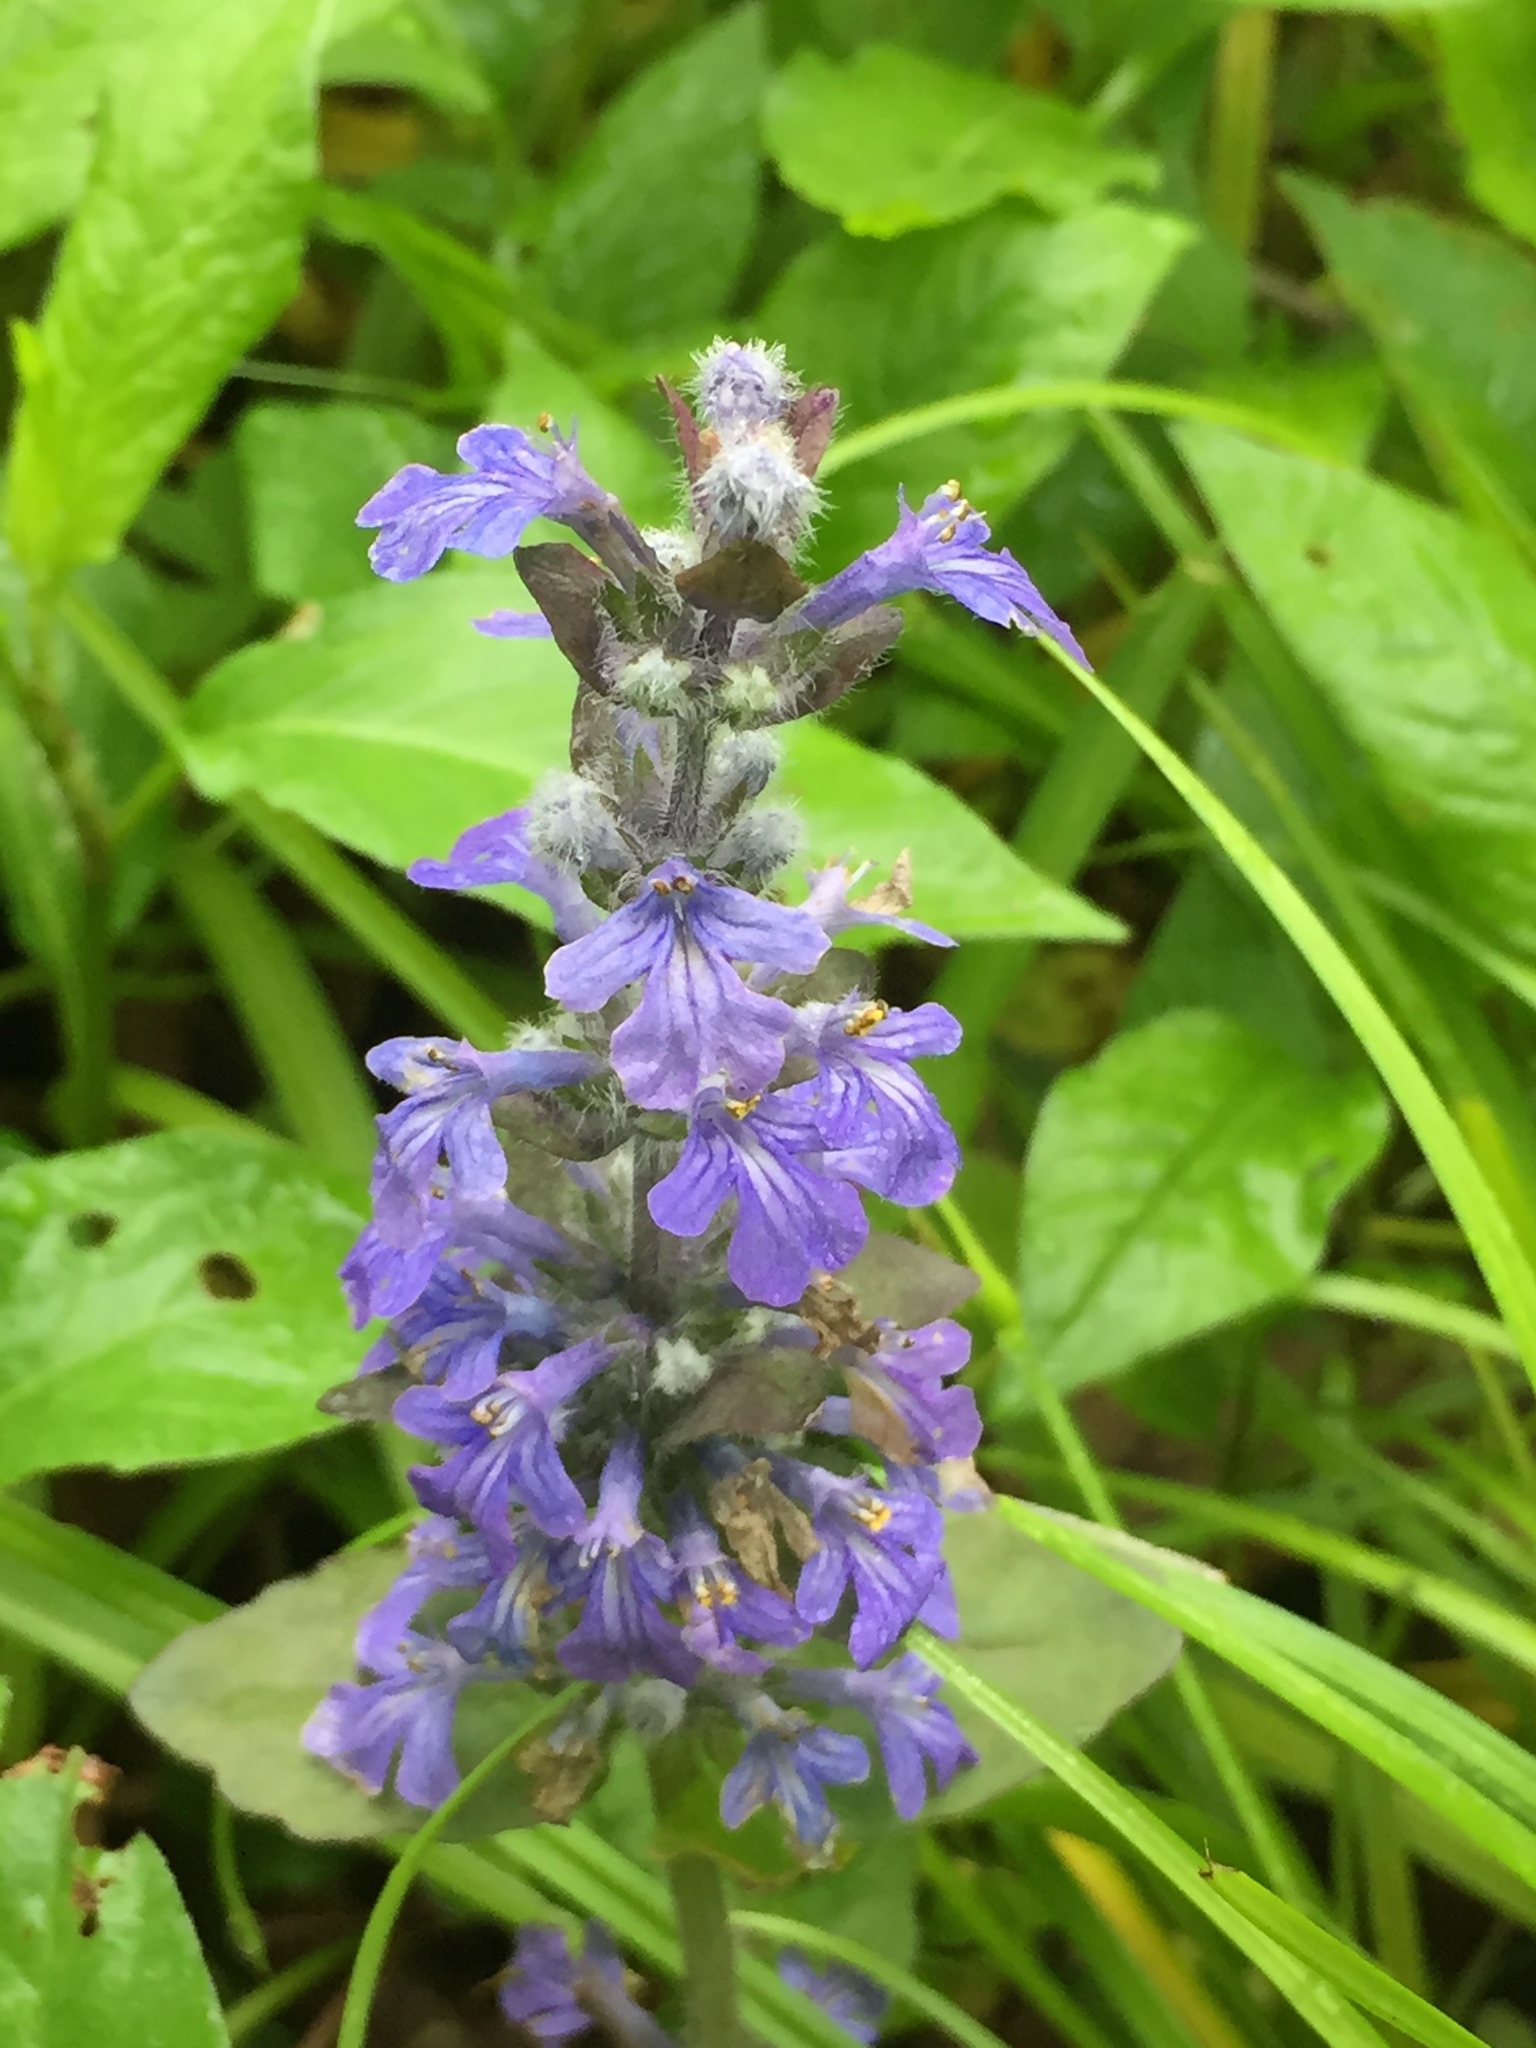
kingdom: Plantae
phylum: Tracheophyta
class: Magnoliopsida
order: Lamiales
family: Lamiaceae
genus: Ajuga
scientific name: Ajuga reptans
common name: Bugle
